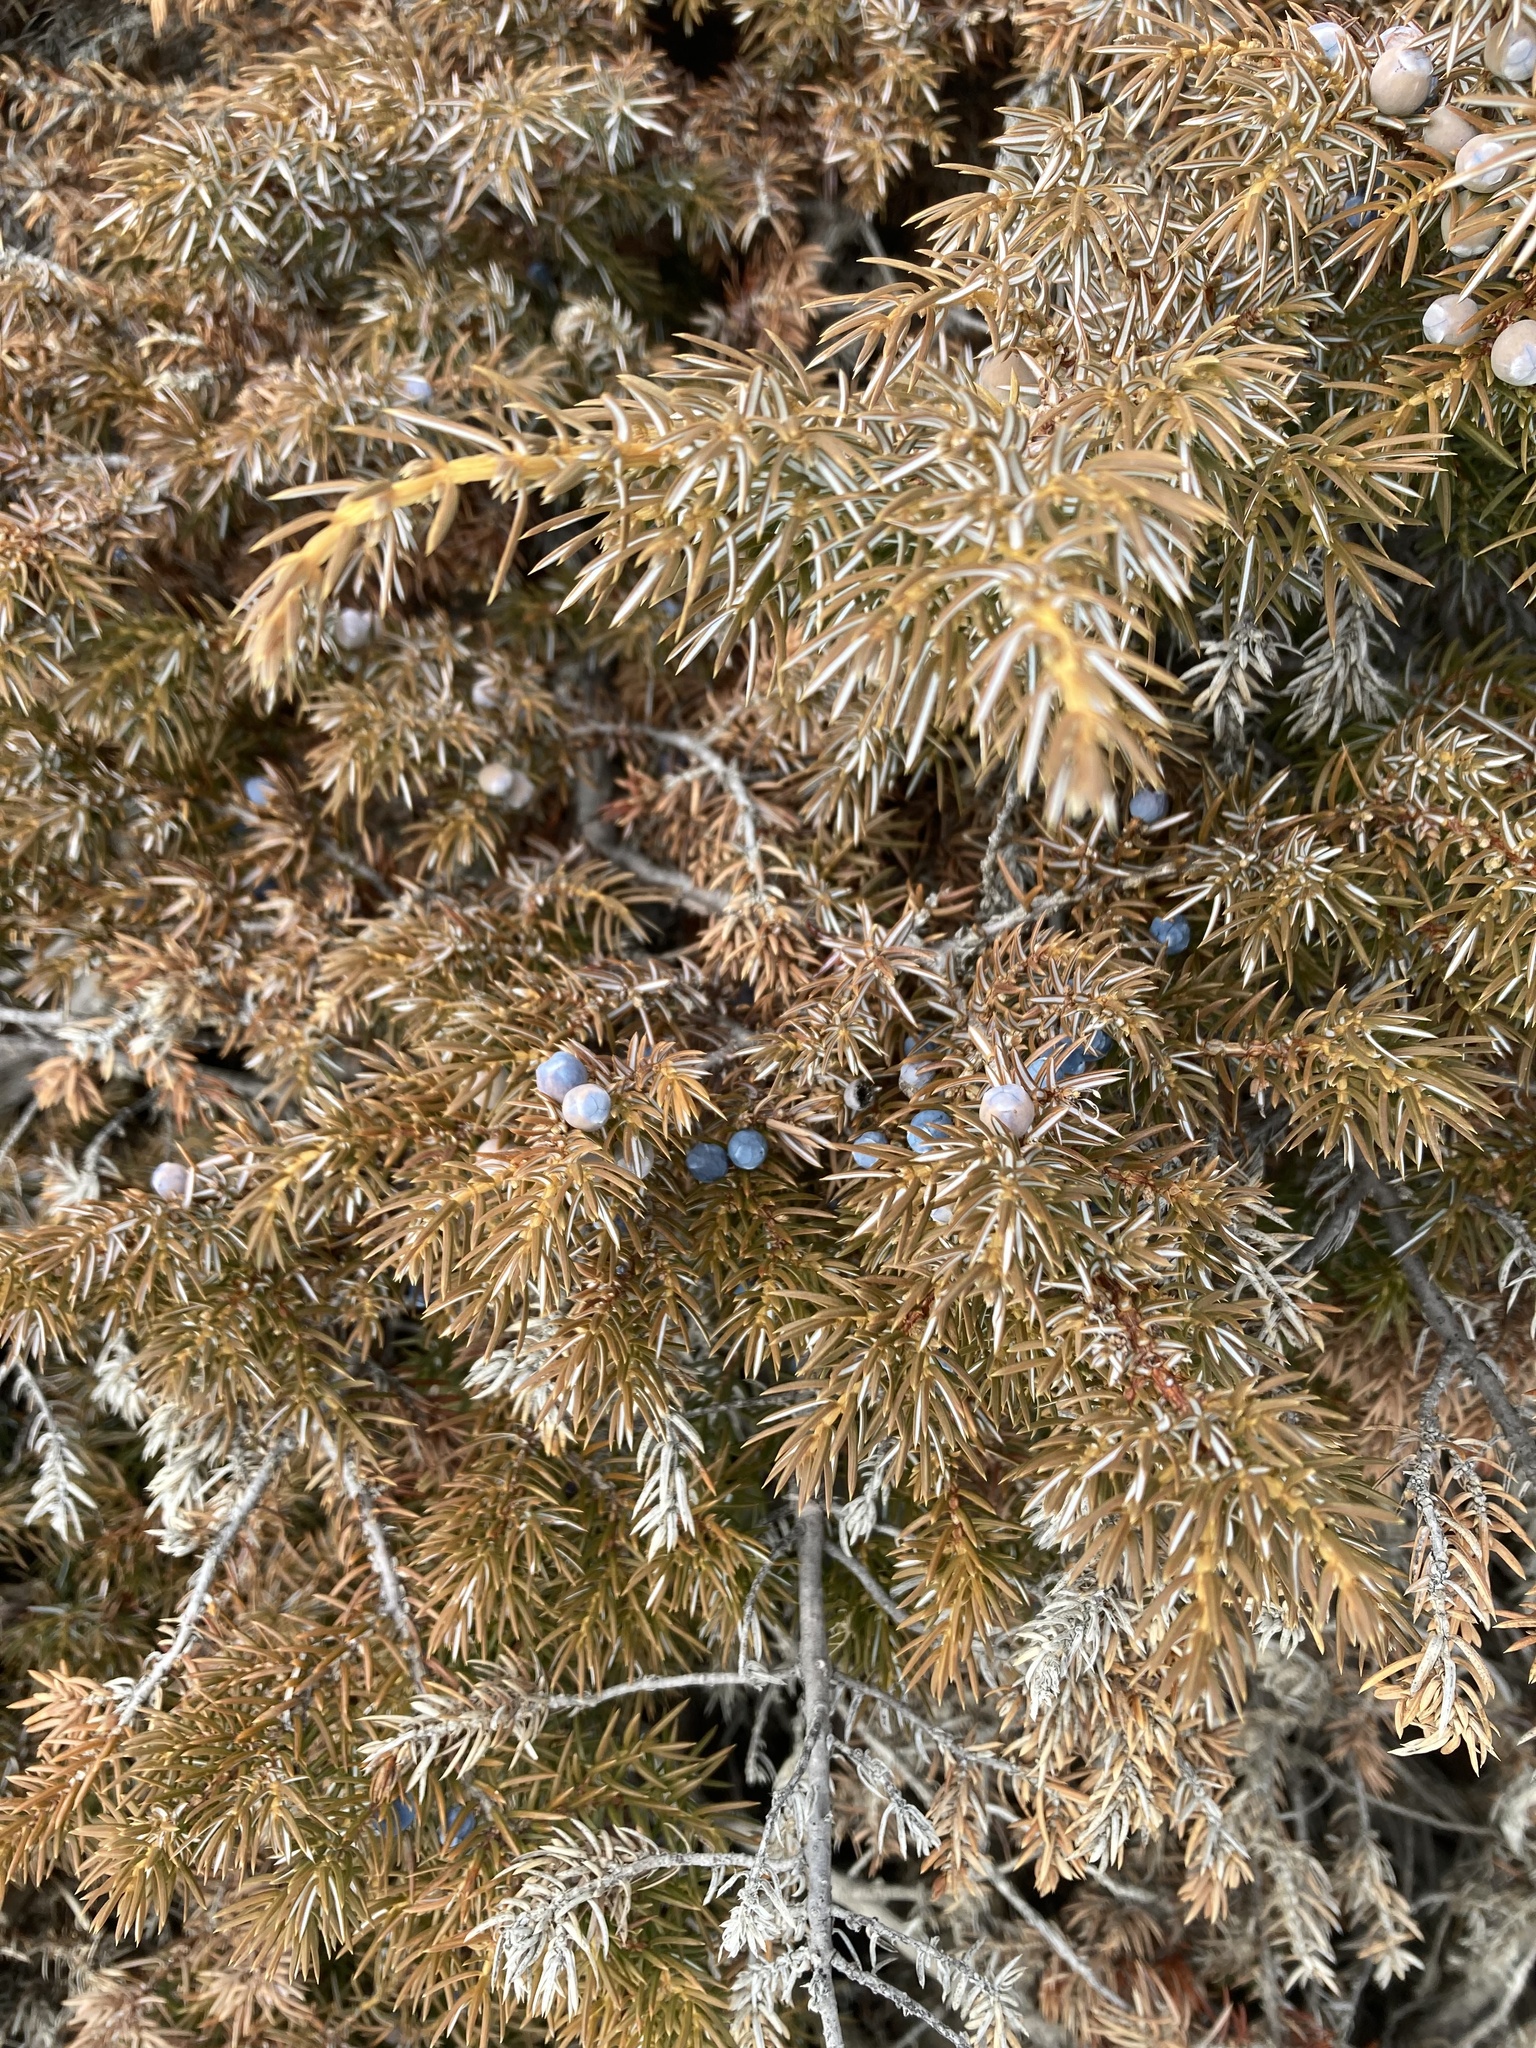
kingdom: Plantae
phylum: Tracheophyta
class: Pinopsida
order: Pinales
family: Cupressaceae
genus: Juniperus
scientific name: Juniperus communis
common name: Common juniper
